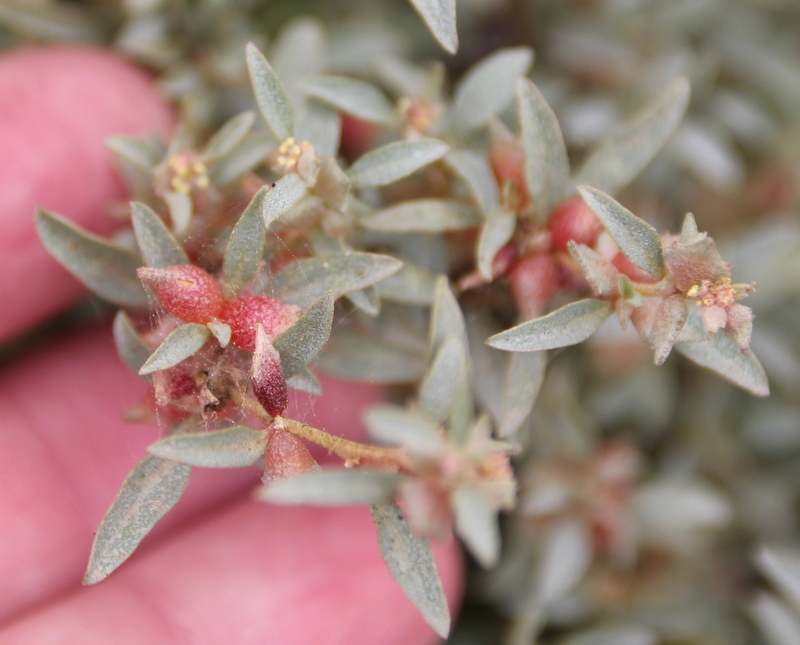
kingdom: Plantae
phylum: Tracheophyta
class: Magnoliopsida
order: Caryophyllales
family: Amaranthaceae
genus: Atriplex
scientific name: Atriplex semibaccata
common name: Australian saltbush
